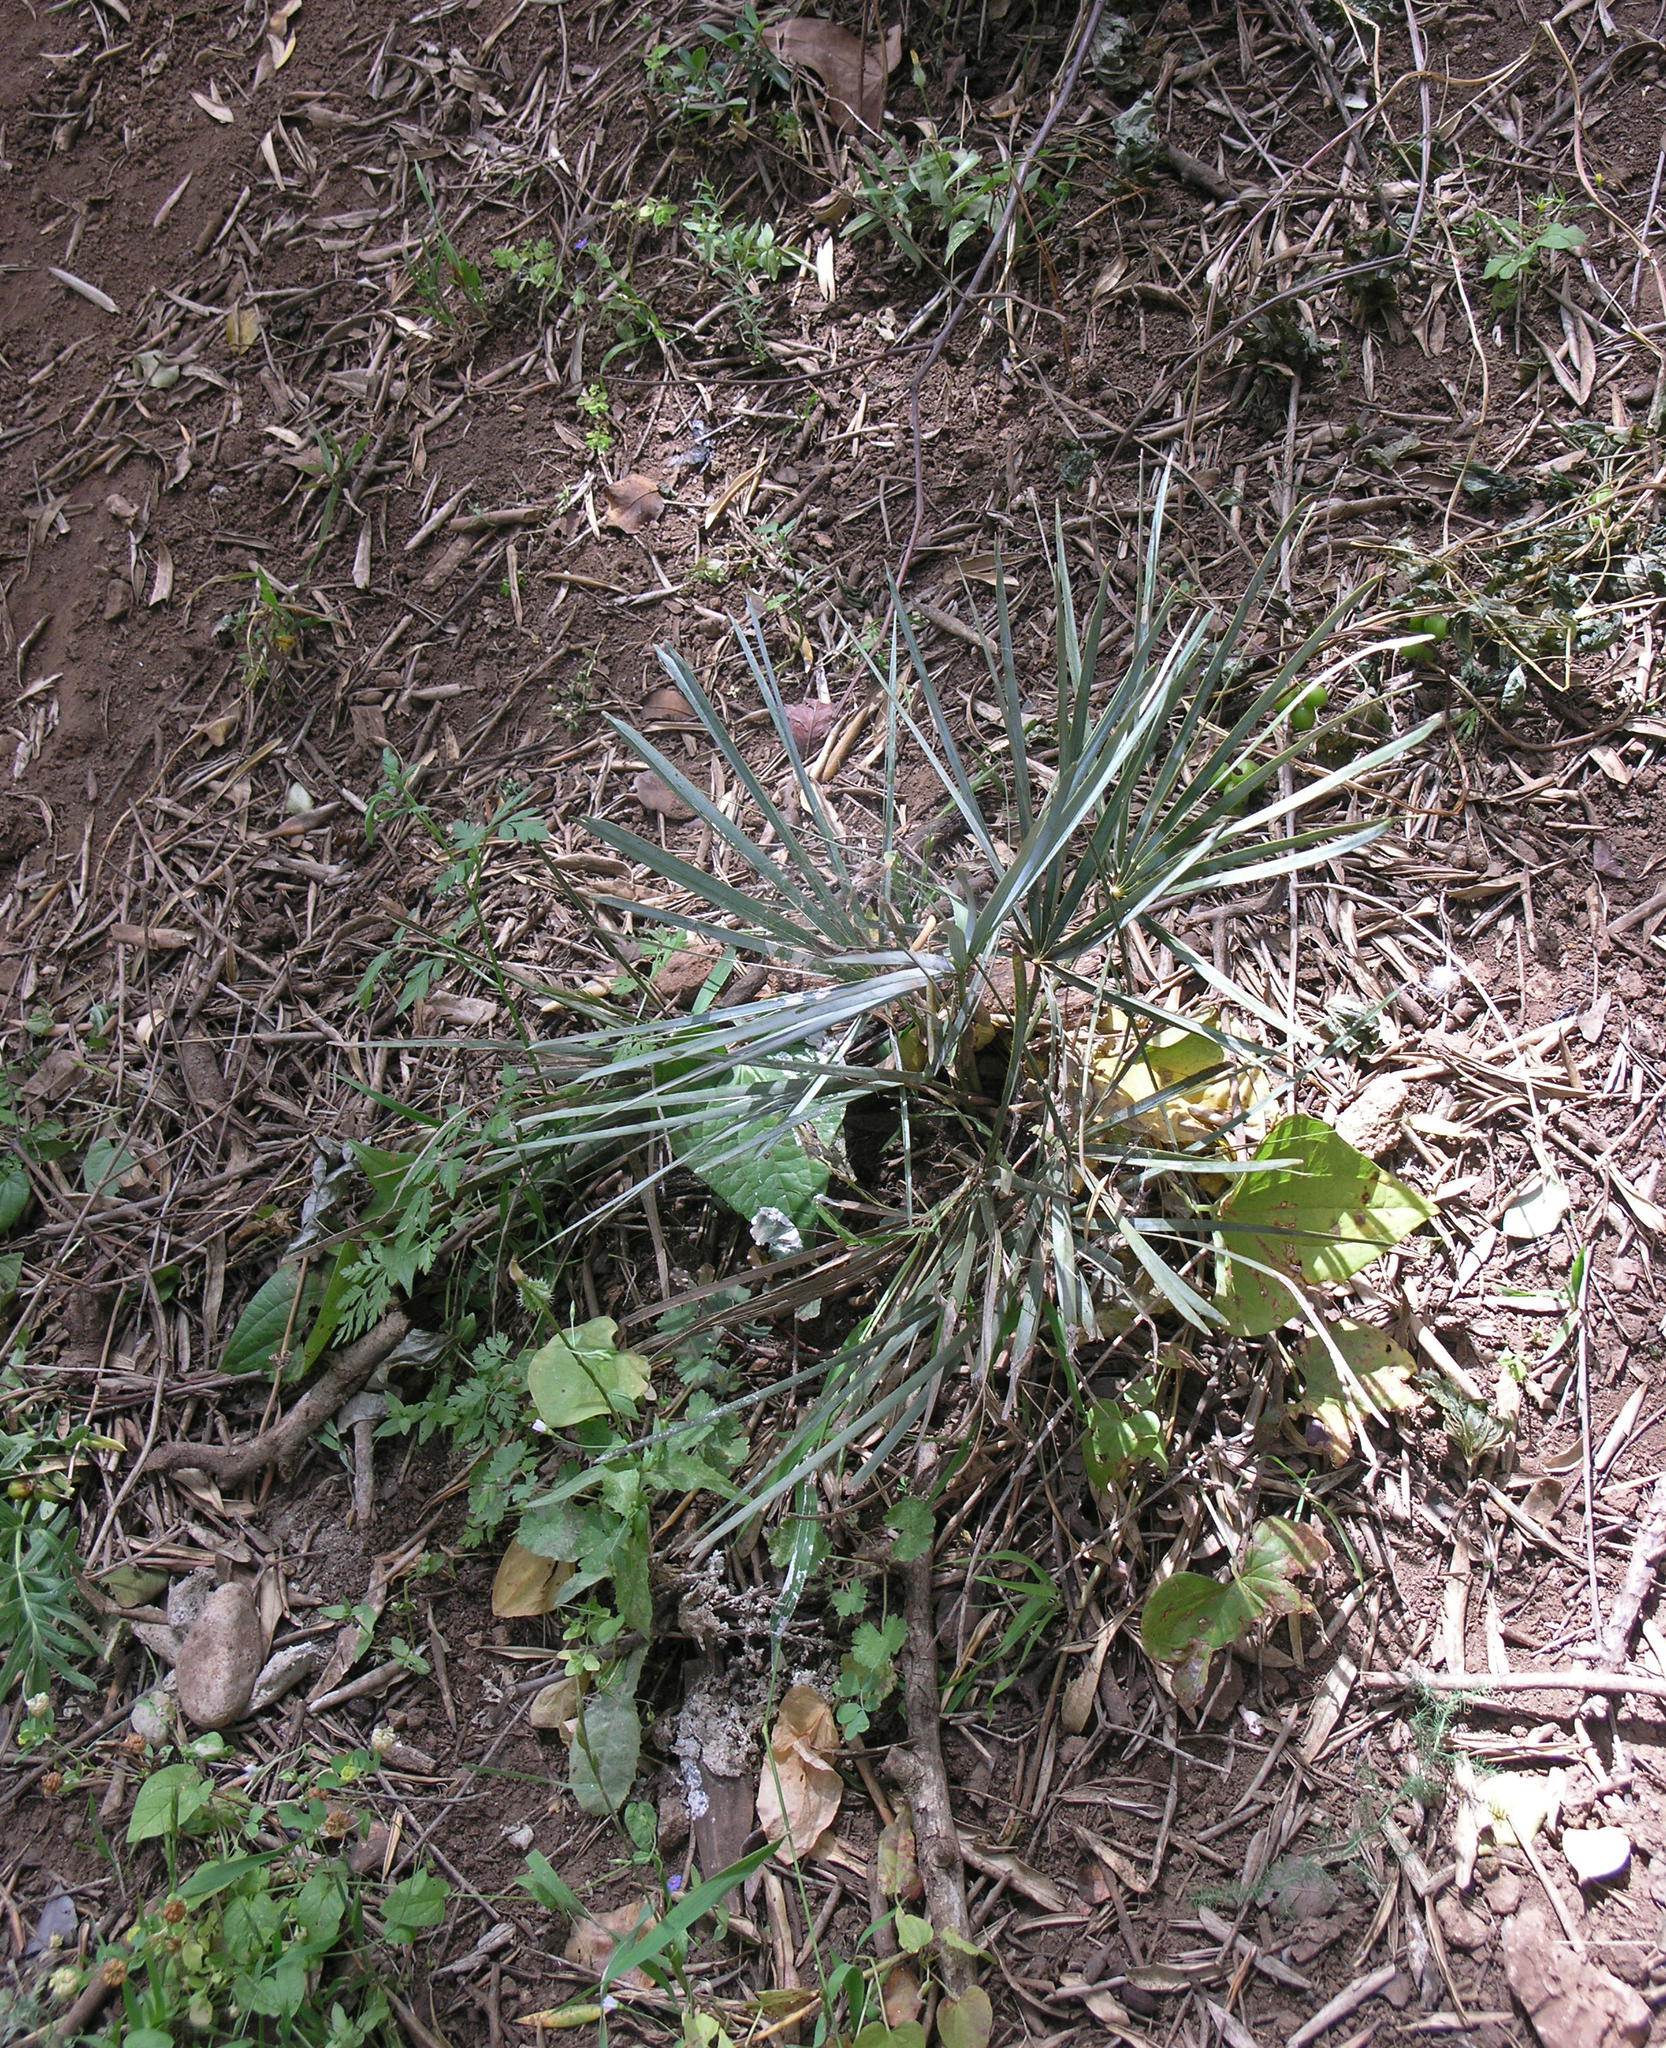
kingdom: Plantae
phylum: Tracheophyta
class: Liliopsida
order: Arecales
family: Arecaceae
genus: Chamaerops
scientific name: Chamaerops humilis
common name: Dwarf fan palm
